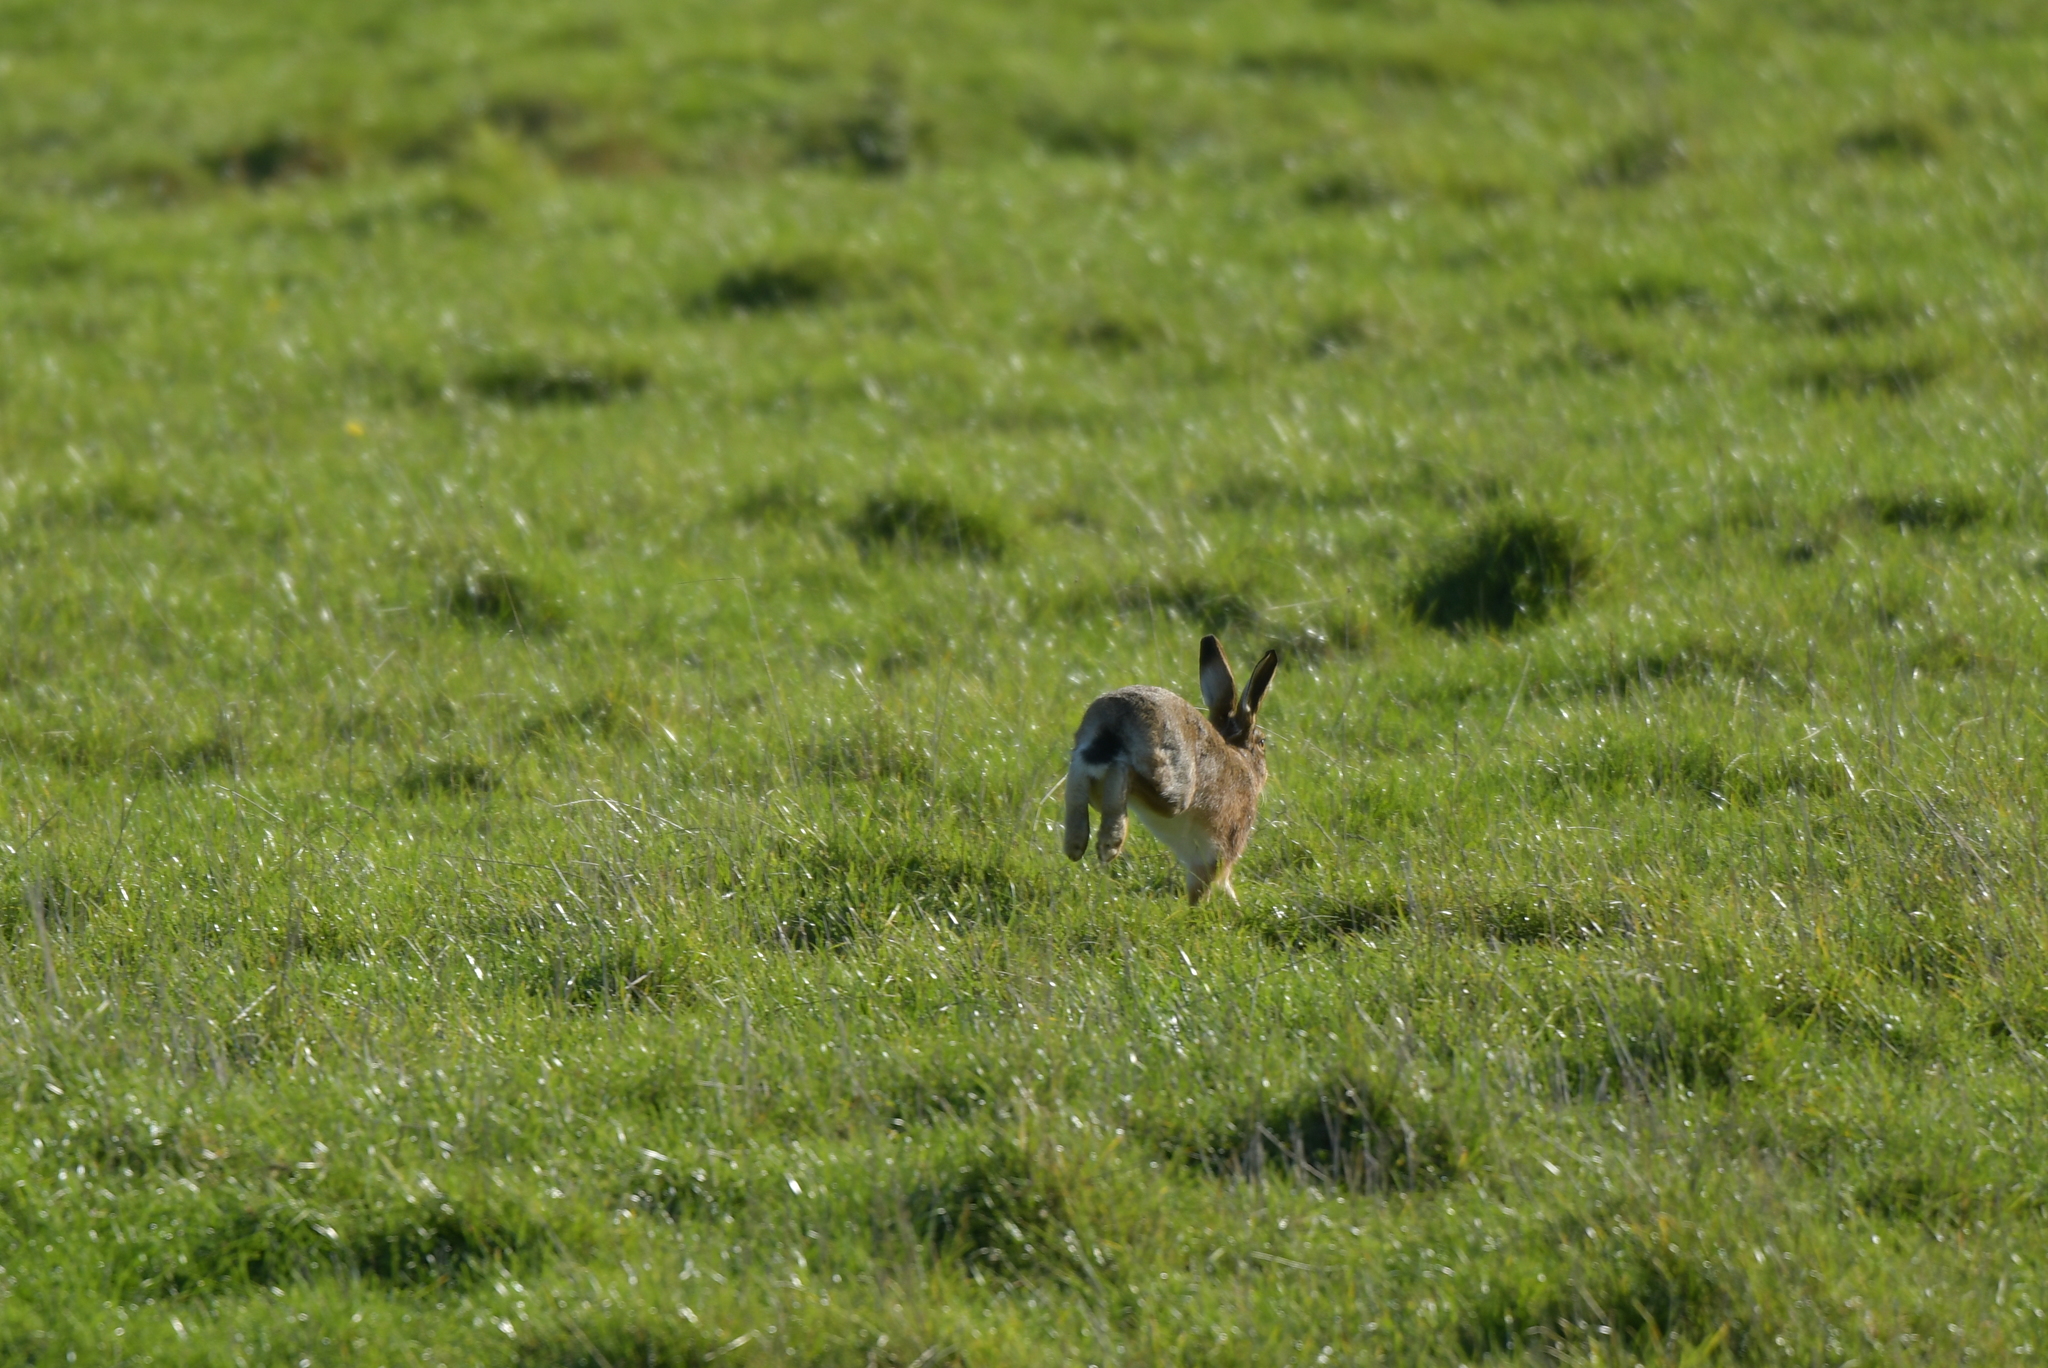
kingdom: Animalia
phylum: Chordata
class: Mammalia
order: Lagomorpha
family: Leporidae
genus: Lepus
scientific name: Lepus europaeus
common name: European hare
